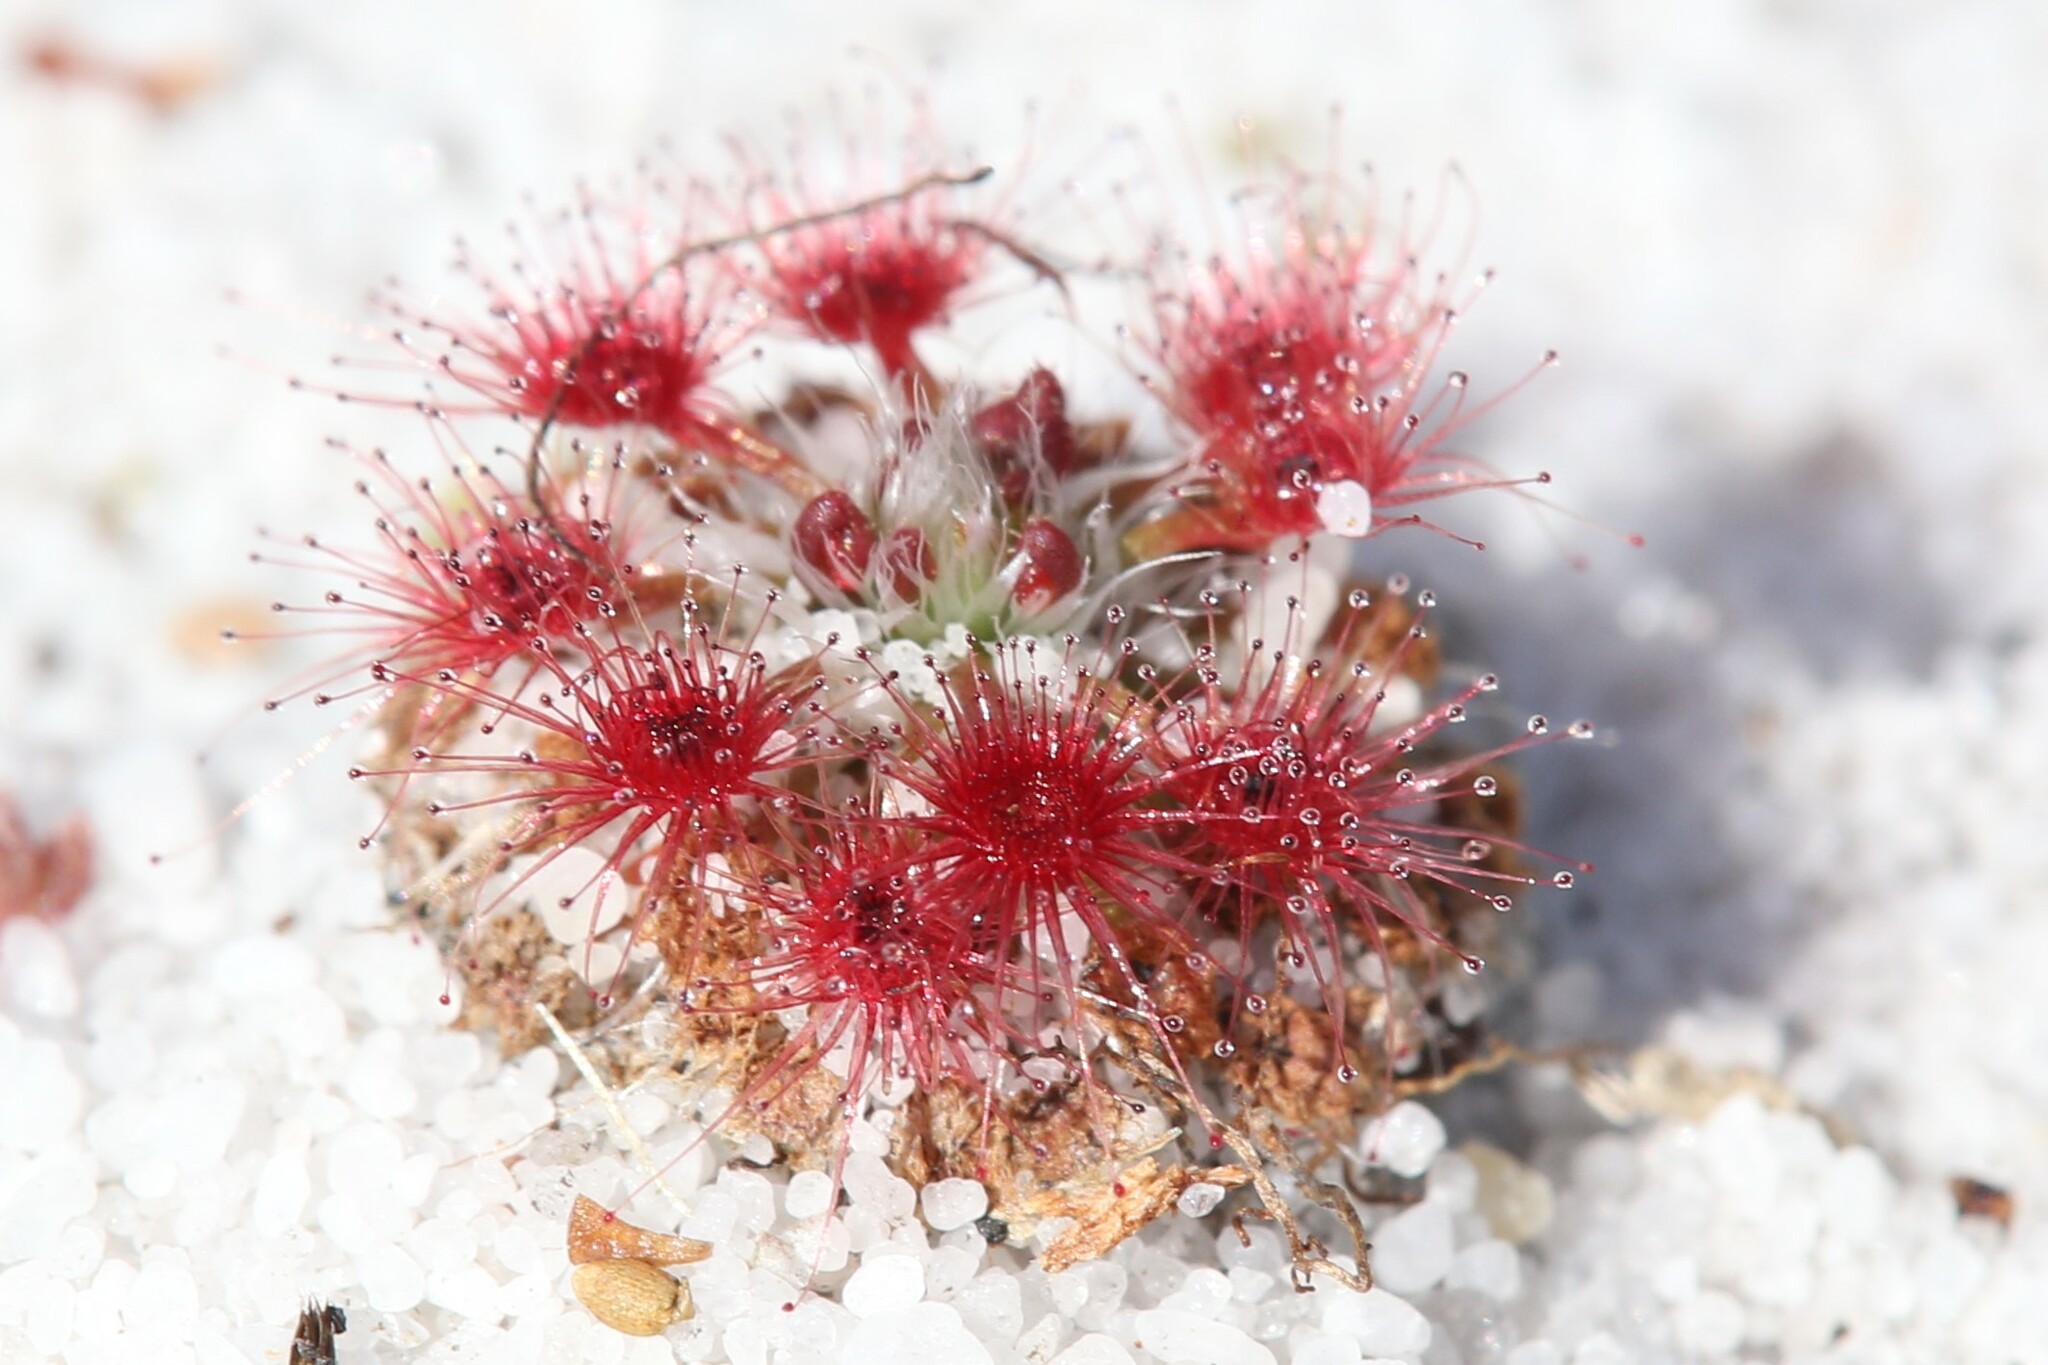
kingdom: Plantae
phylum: Tracheophyta
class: Magnoliopsida
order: Caryophyllales
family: Droseraceae
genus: Drosera
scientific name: Drosera paleacea
